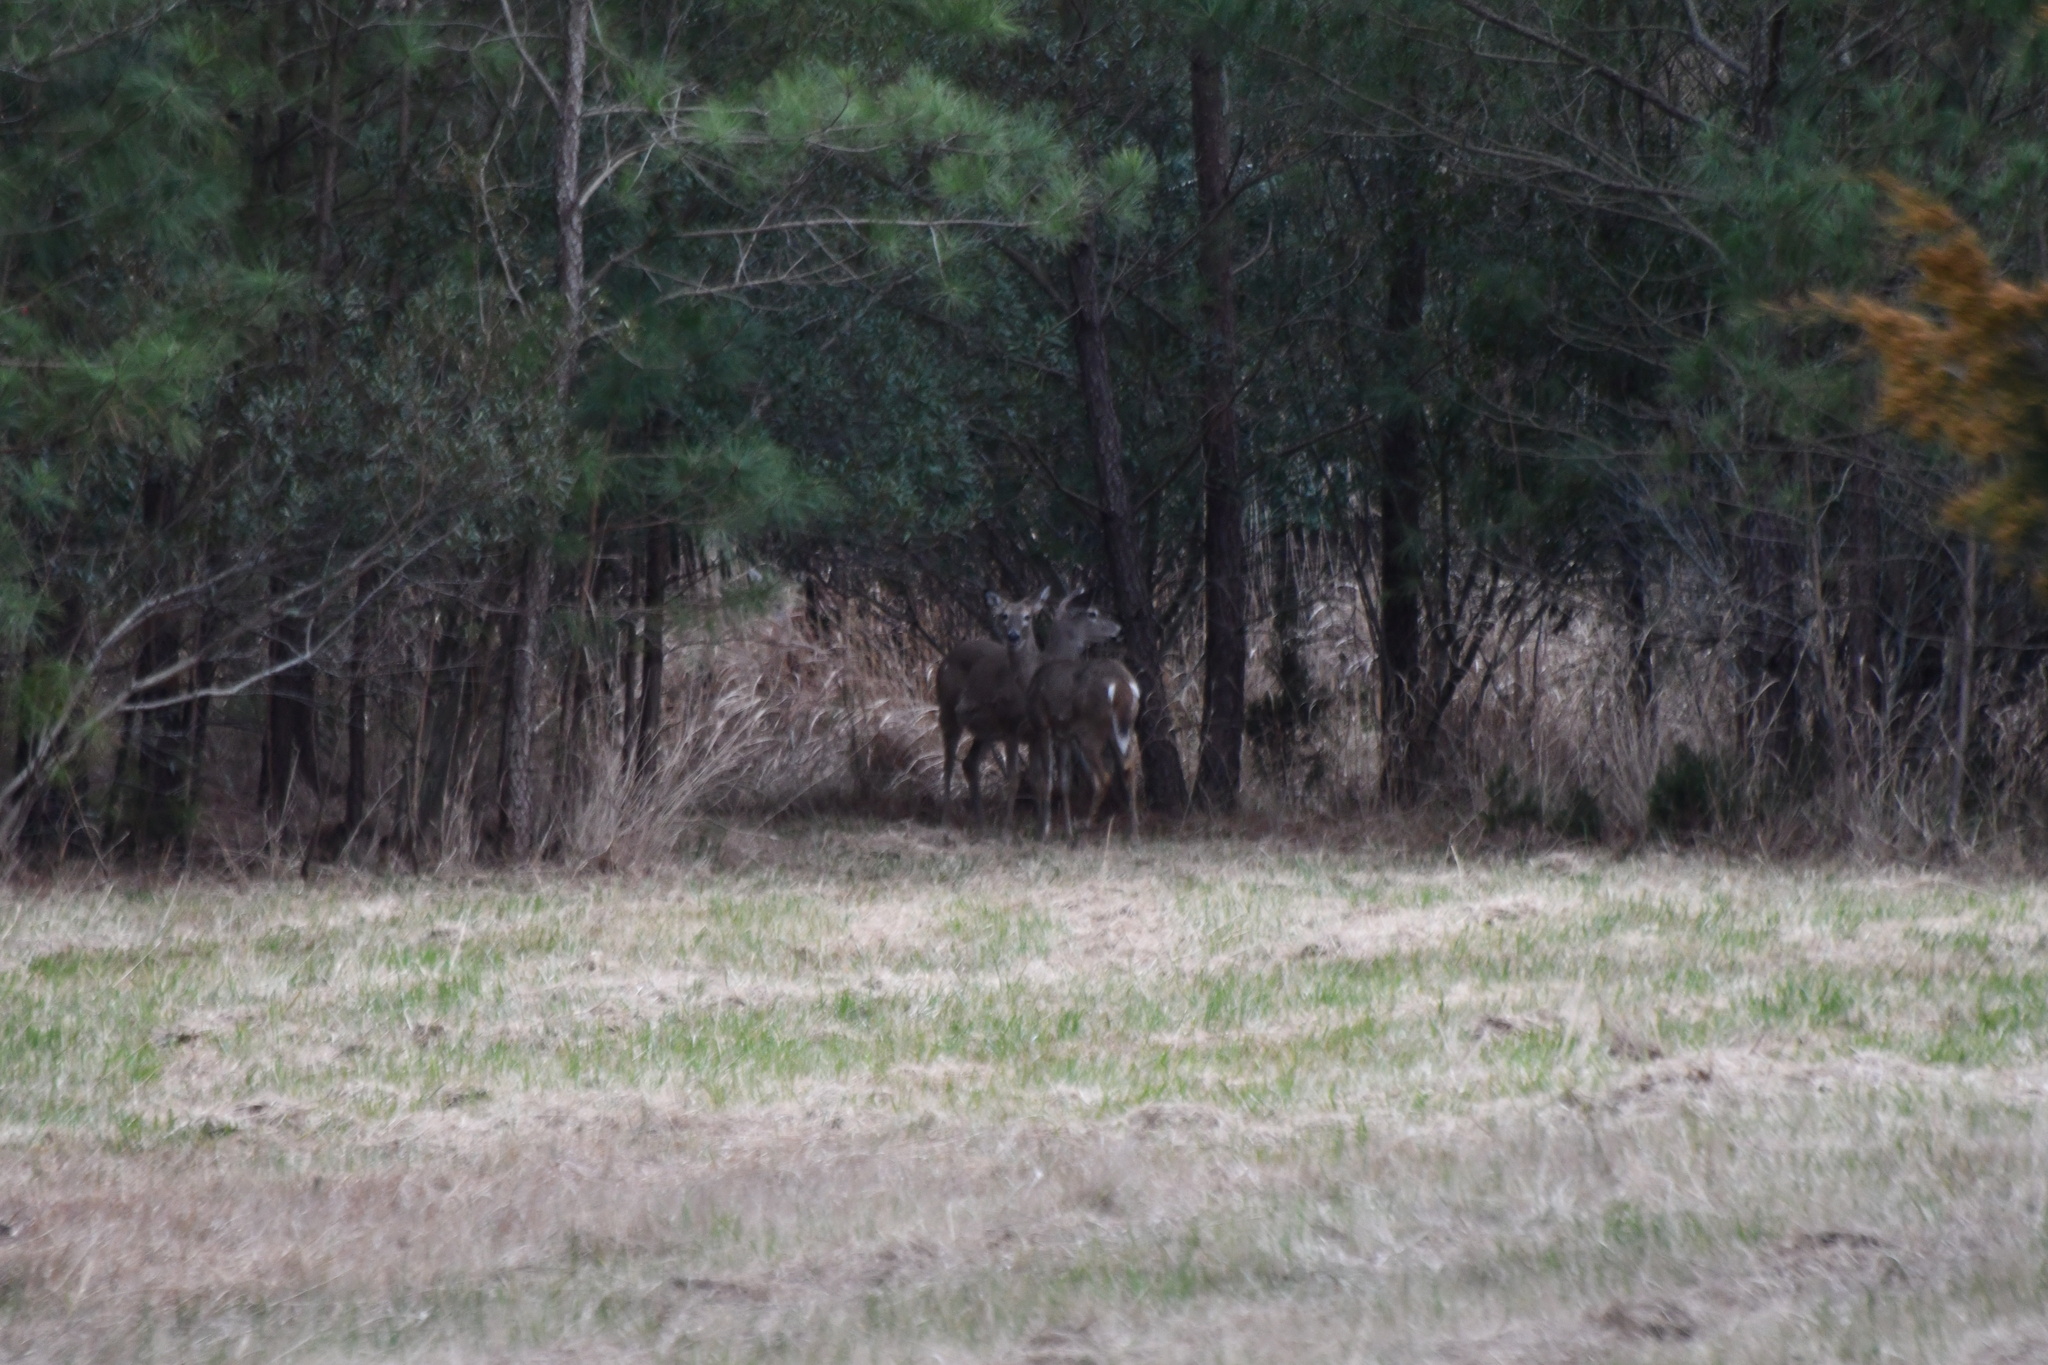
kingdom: Animalia
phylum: Chordata
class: Mammalia
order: Artiodactyla
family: Cervidae
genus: Odocoileus
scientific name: Odocoileus virginianus
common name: White-tailed deer
